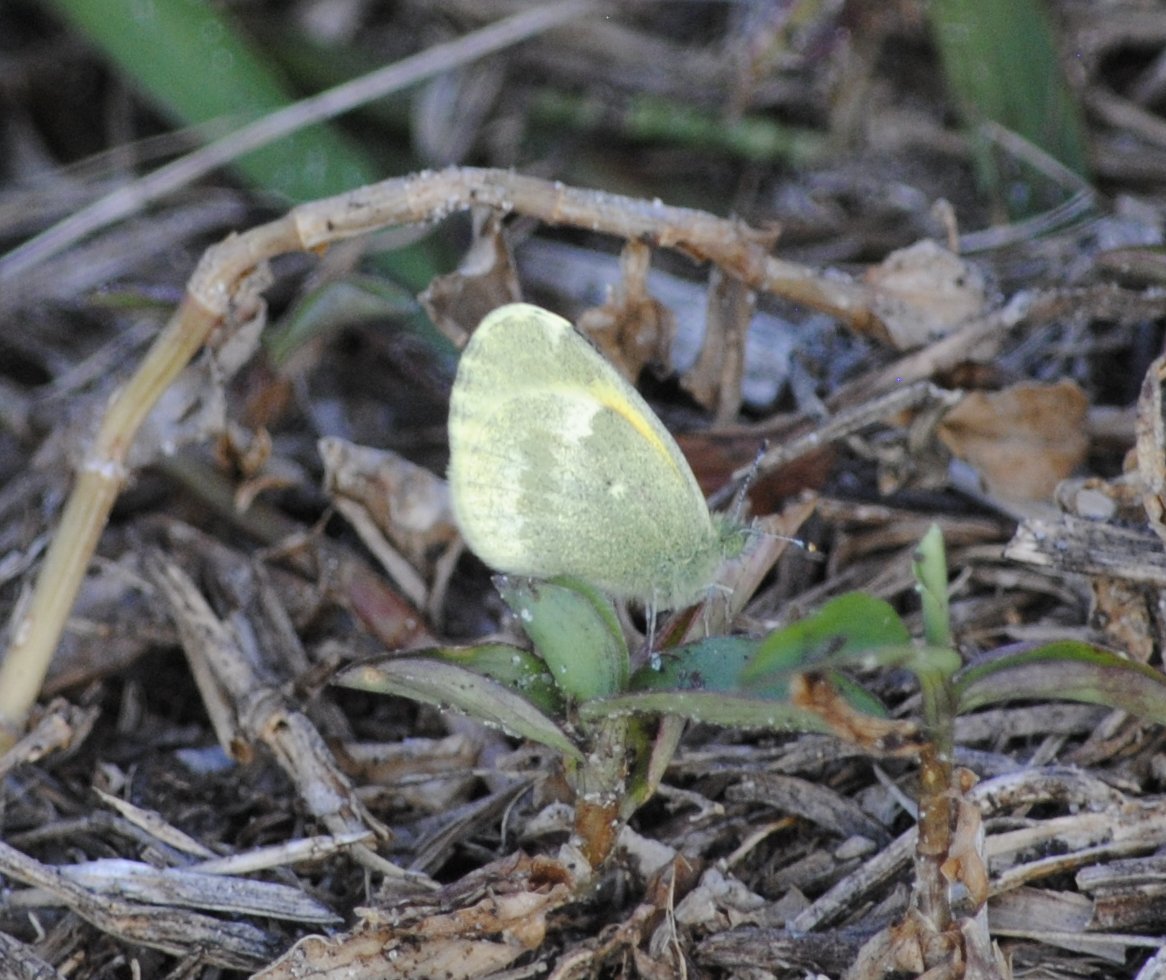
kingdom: Animalia
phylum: Arthropoda
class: Insecta
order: Lepidoptera
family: Pieridae
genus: Nathalis
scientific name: Nathalis iole
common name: Dainty sulphur
